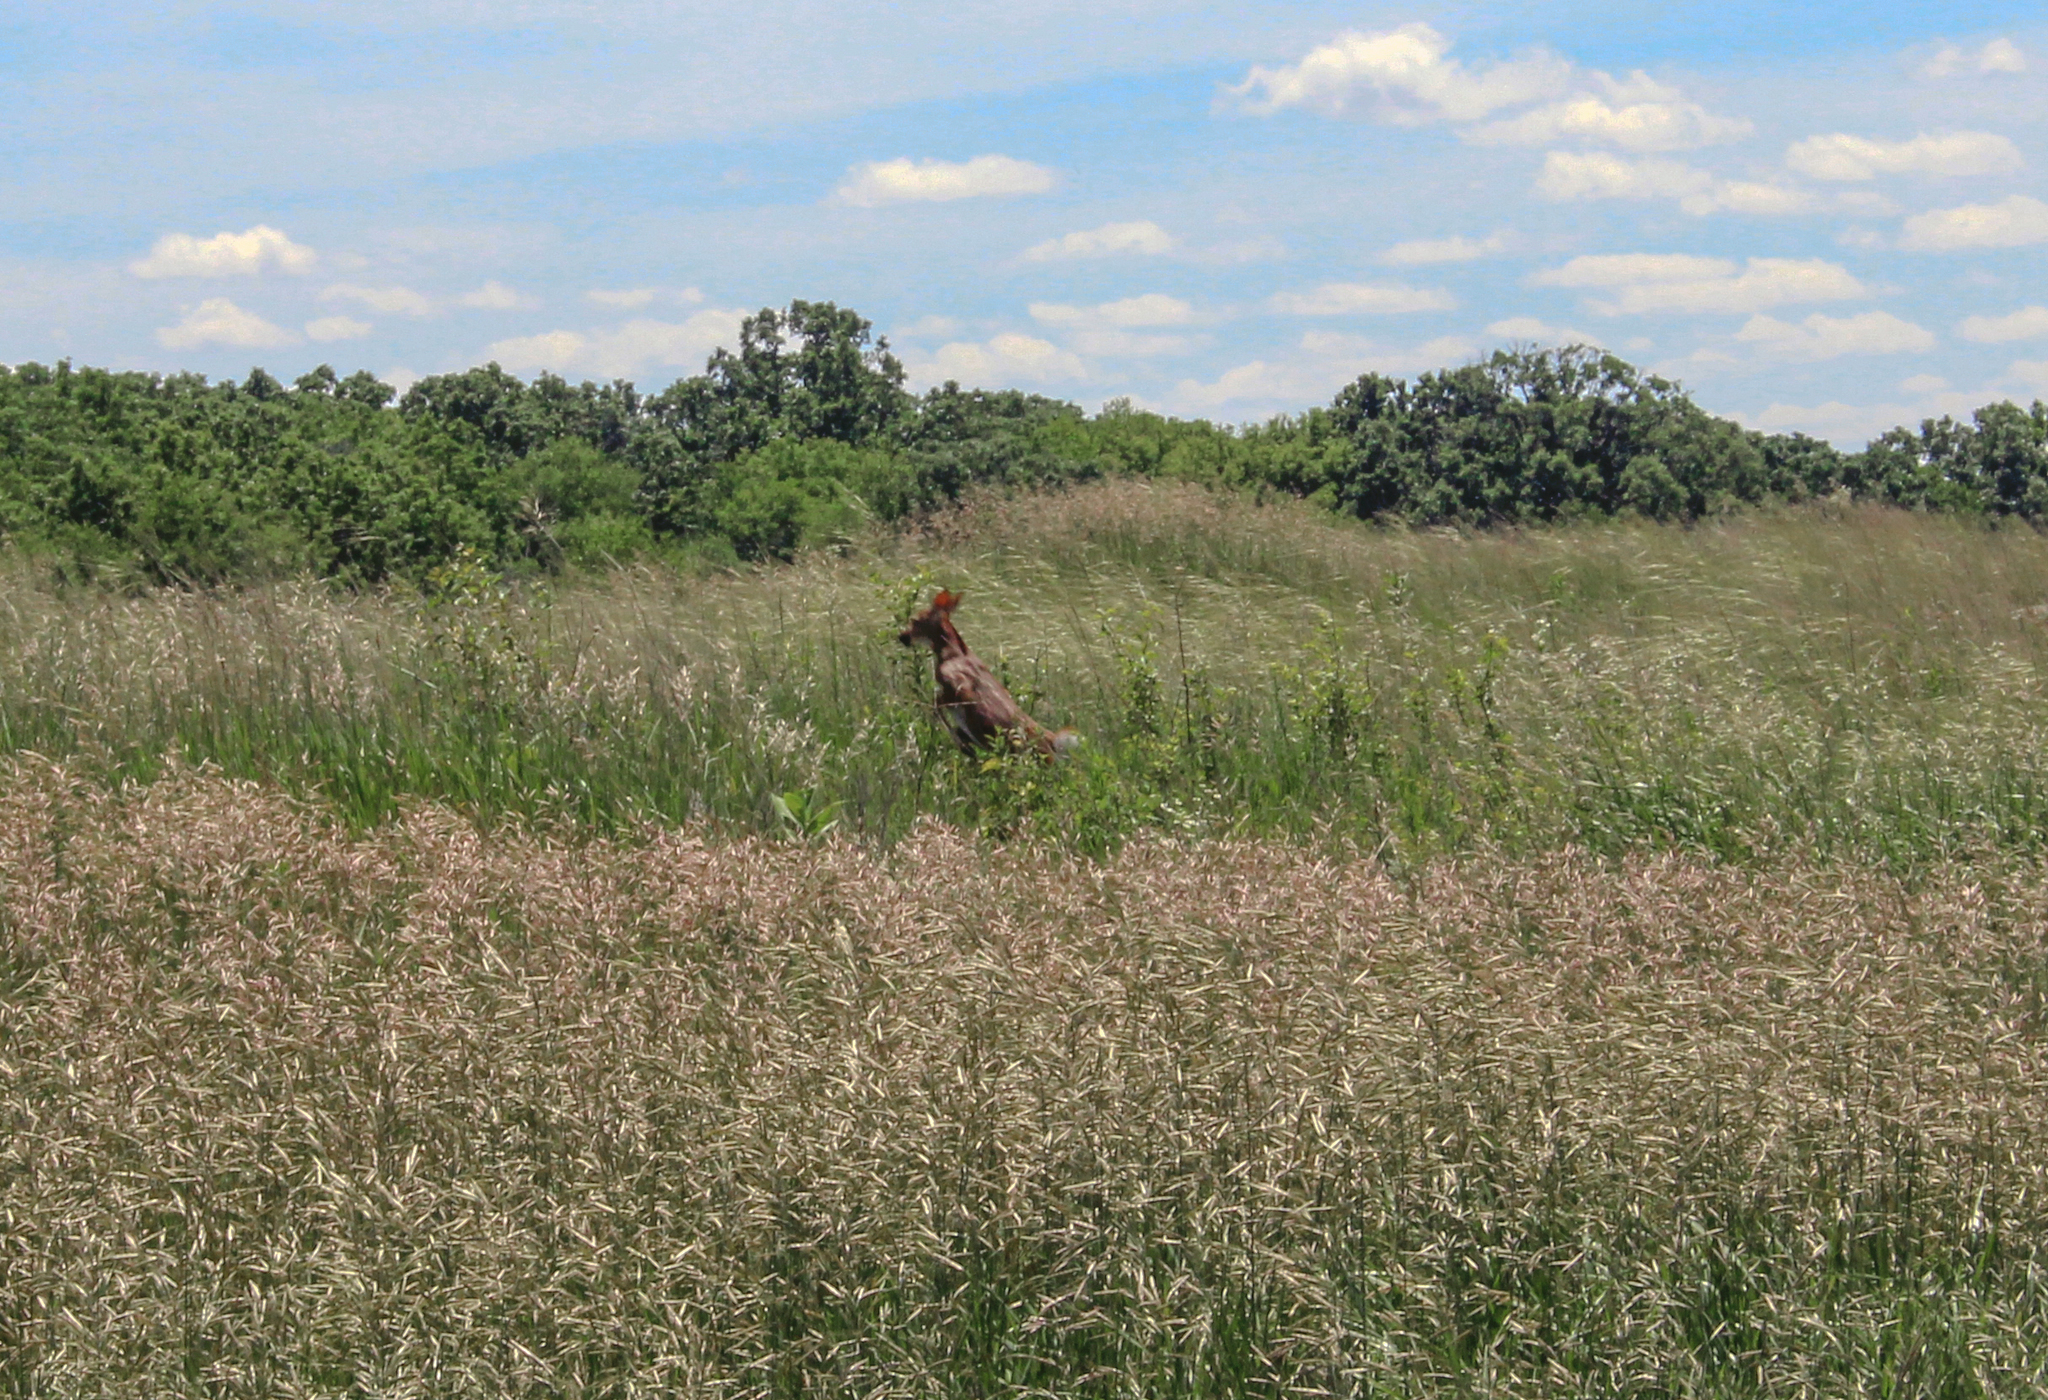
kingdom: Animalia
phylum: Chordata
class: Mammalia
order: Artiodactyla
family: Cervidae
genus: Odocoileus
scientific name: Odocoileus virginianus
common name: White-tailed deer
